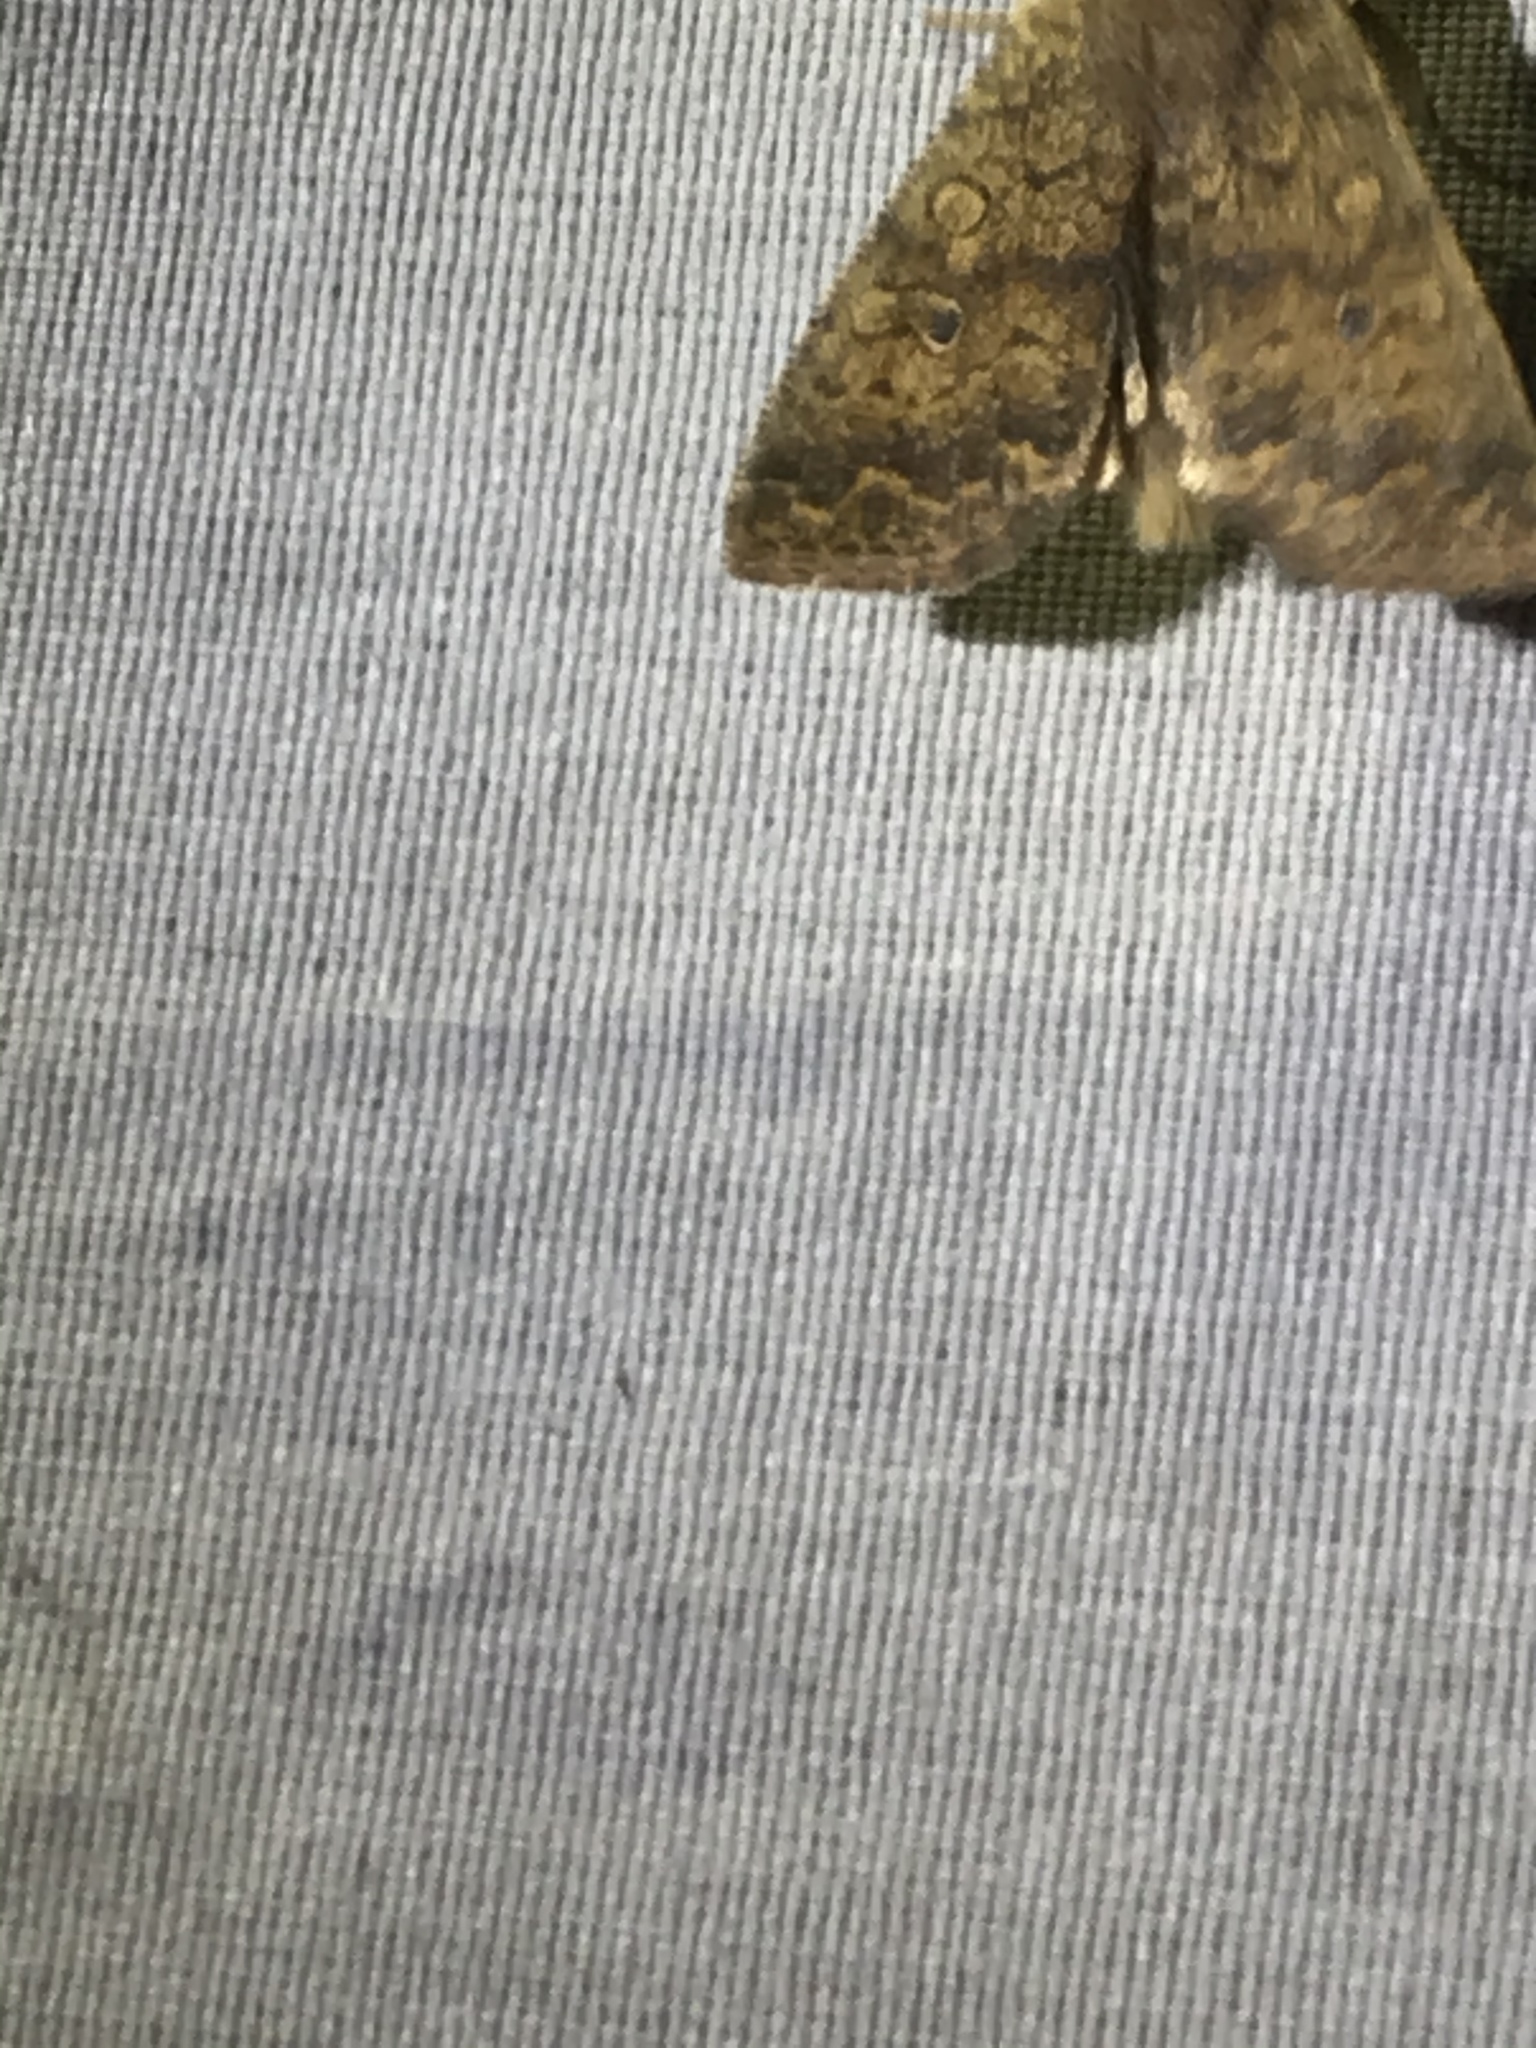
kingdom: Animalia
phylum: Arthropoda
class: Insecta
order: Lepidoptera
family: Noctuidae
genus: Agrochola
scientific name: Agrochola bicolorago
